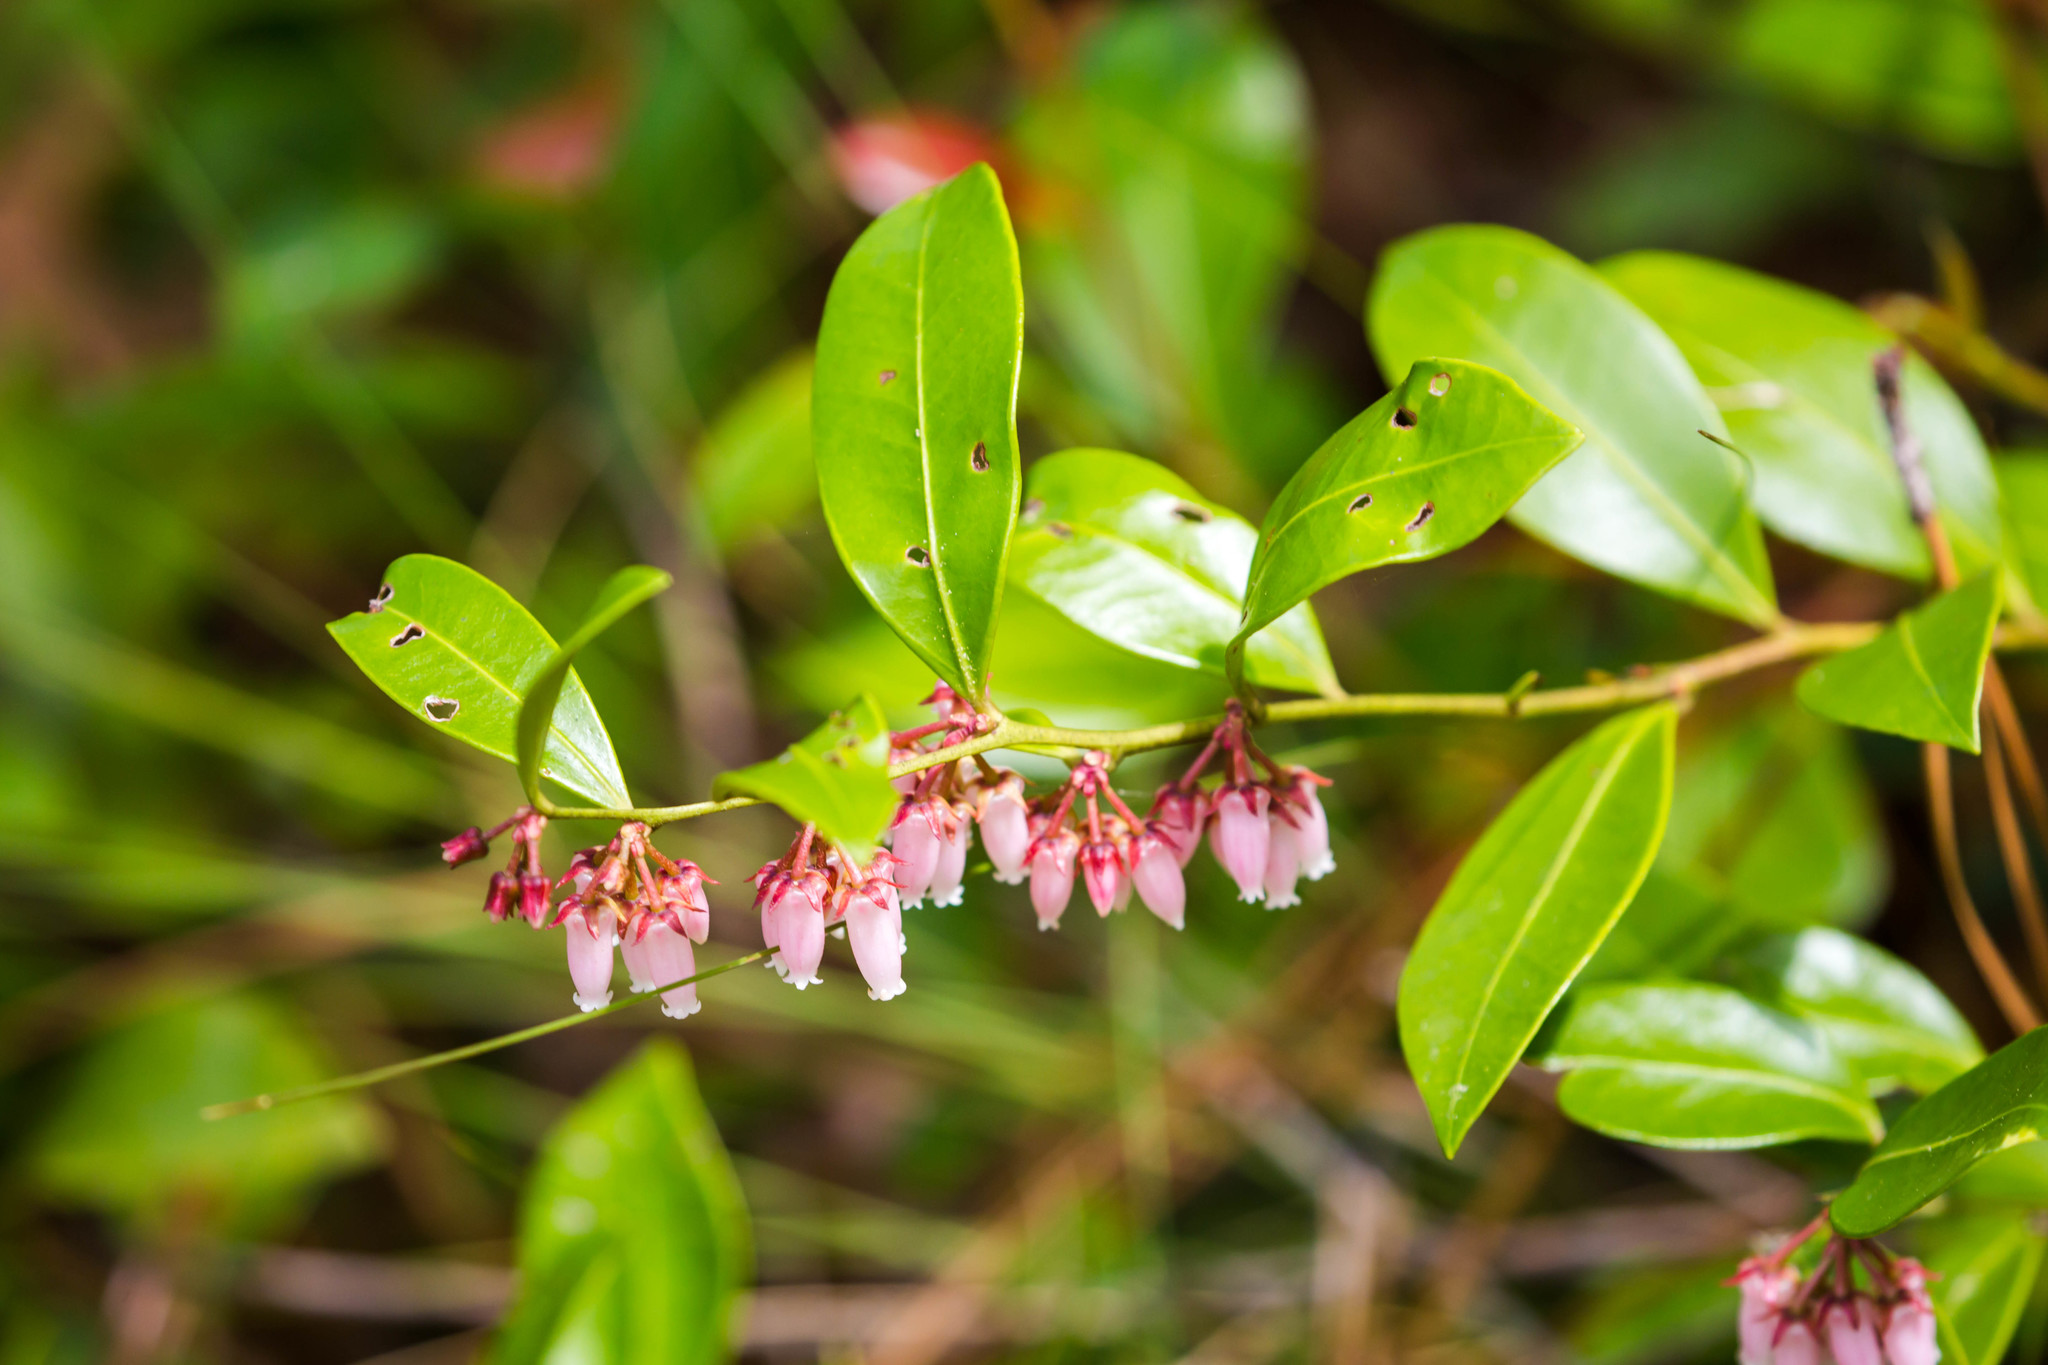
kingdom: Plantae
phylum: Tracheophyta
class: Magnoliopsida
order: Ericales
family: Ericaceae
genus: Lyonia
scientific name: Lyonia lucida
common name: Fetterbush
